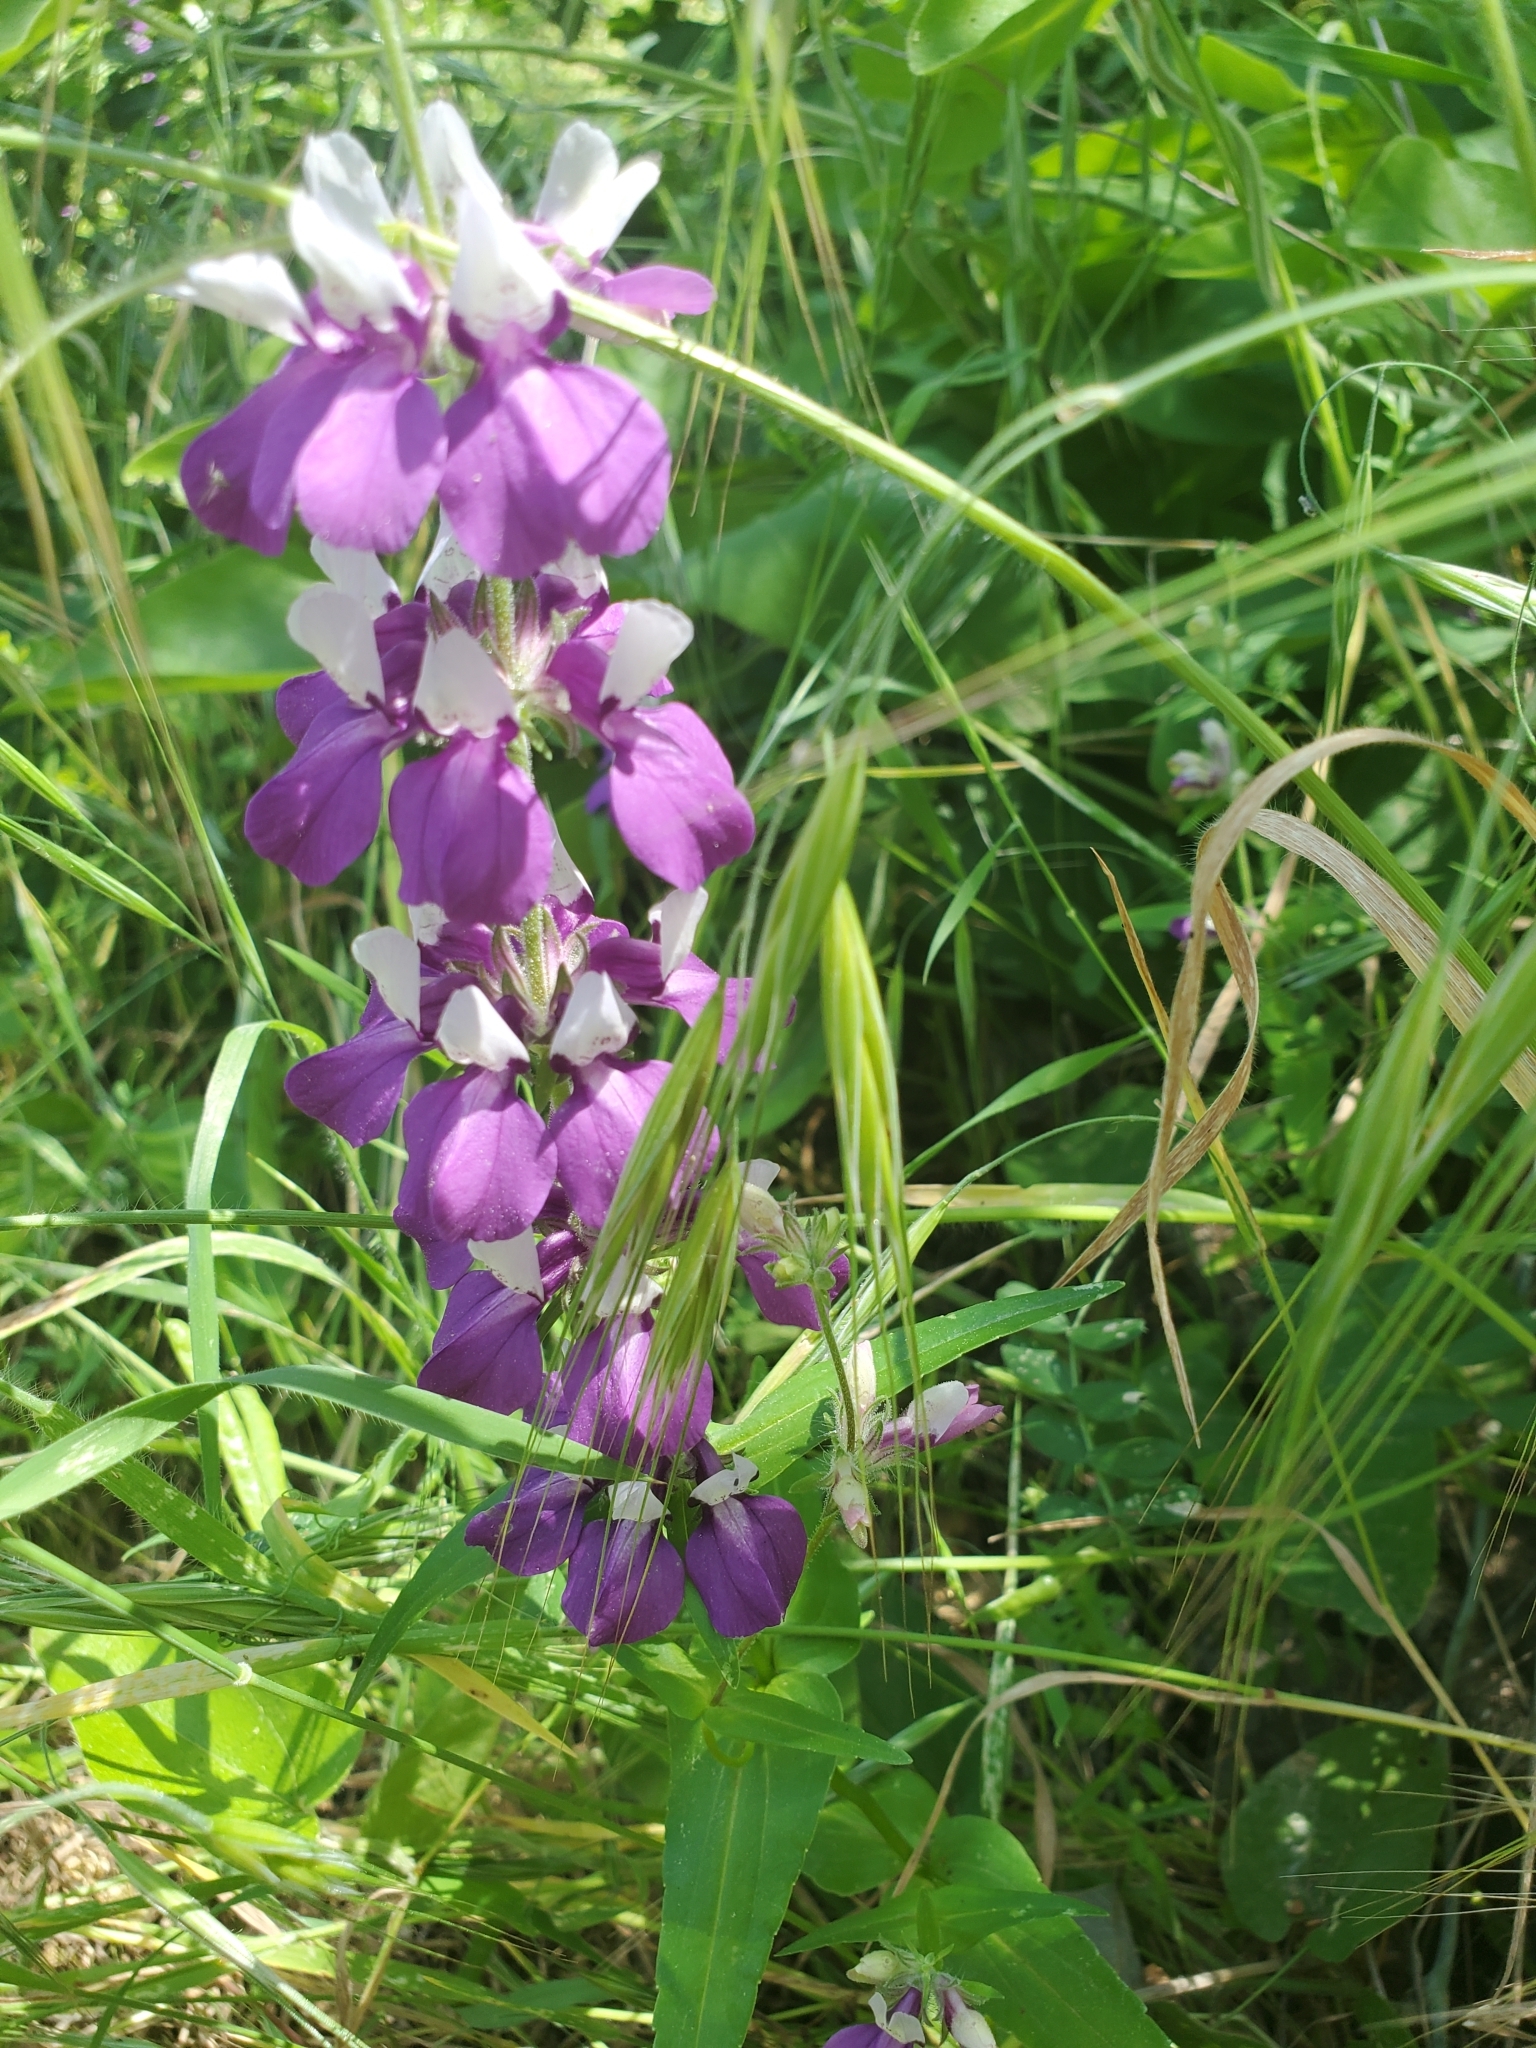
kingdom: Plantae
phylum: Tracheophyta
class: Magnoliopsida
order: Lamiales
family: Plantaginaceae
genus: Collinsia
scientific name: Collinsia heterophylla
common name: Chinese-houses
